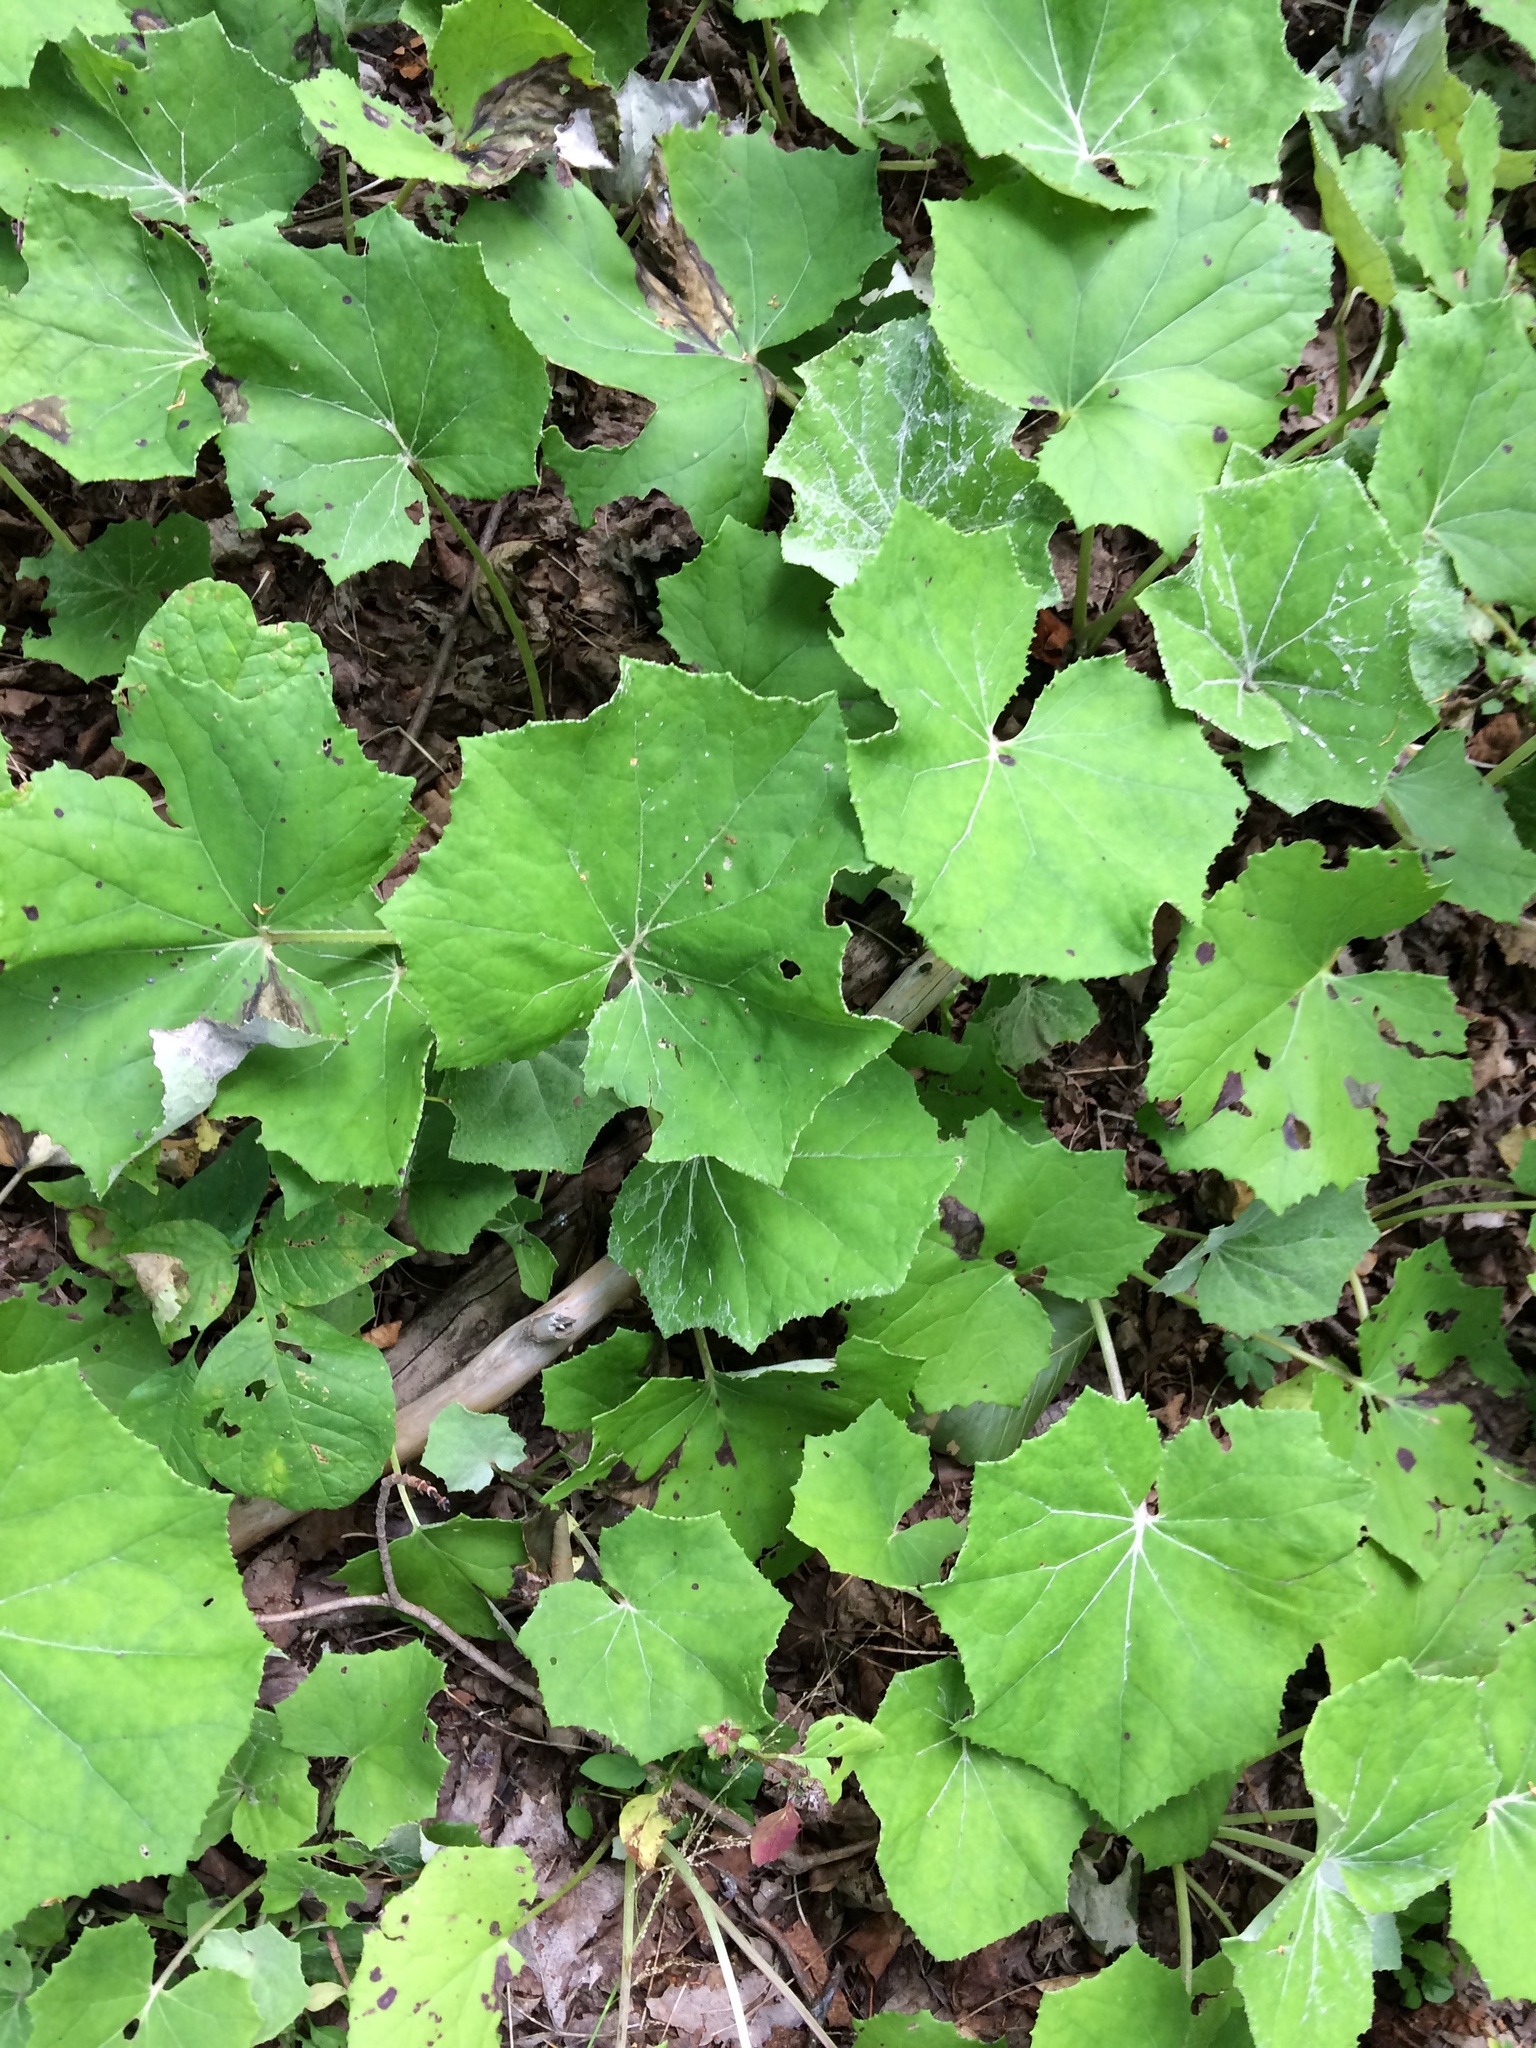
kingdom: Plantae
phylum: Tracheophyta
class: Magnoliopsida
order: Asterales
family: Asteraceae
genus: Tussilago
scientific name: Tussilago farfara
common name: Coltsfoot
